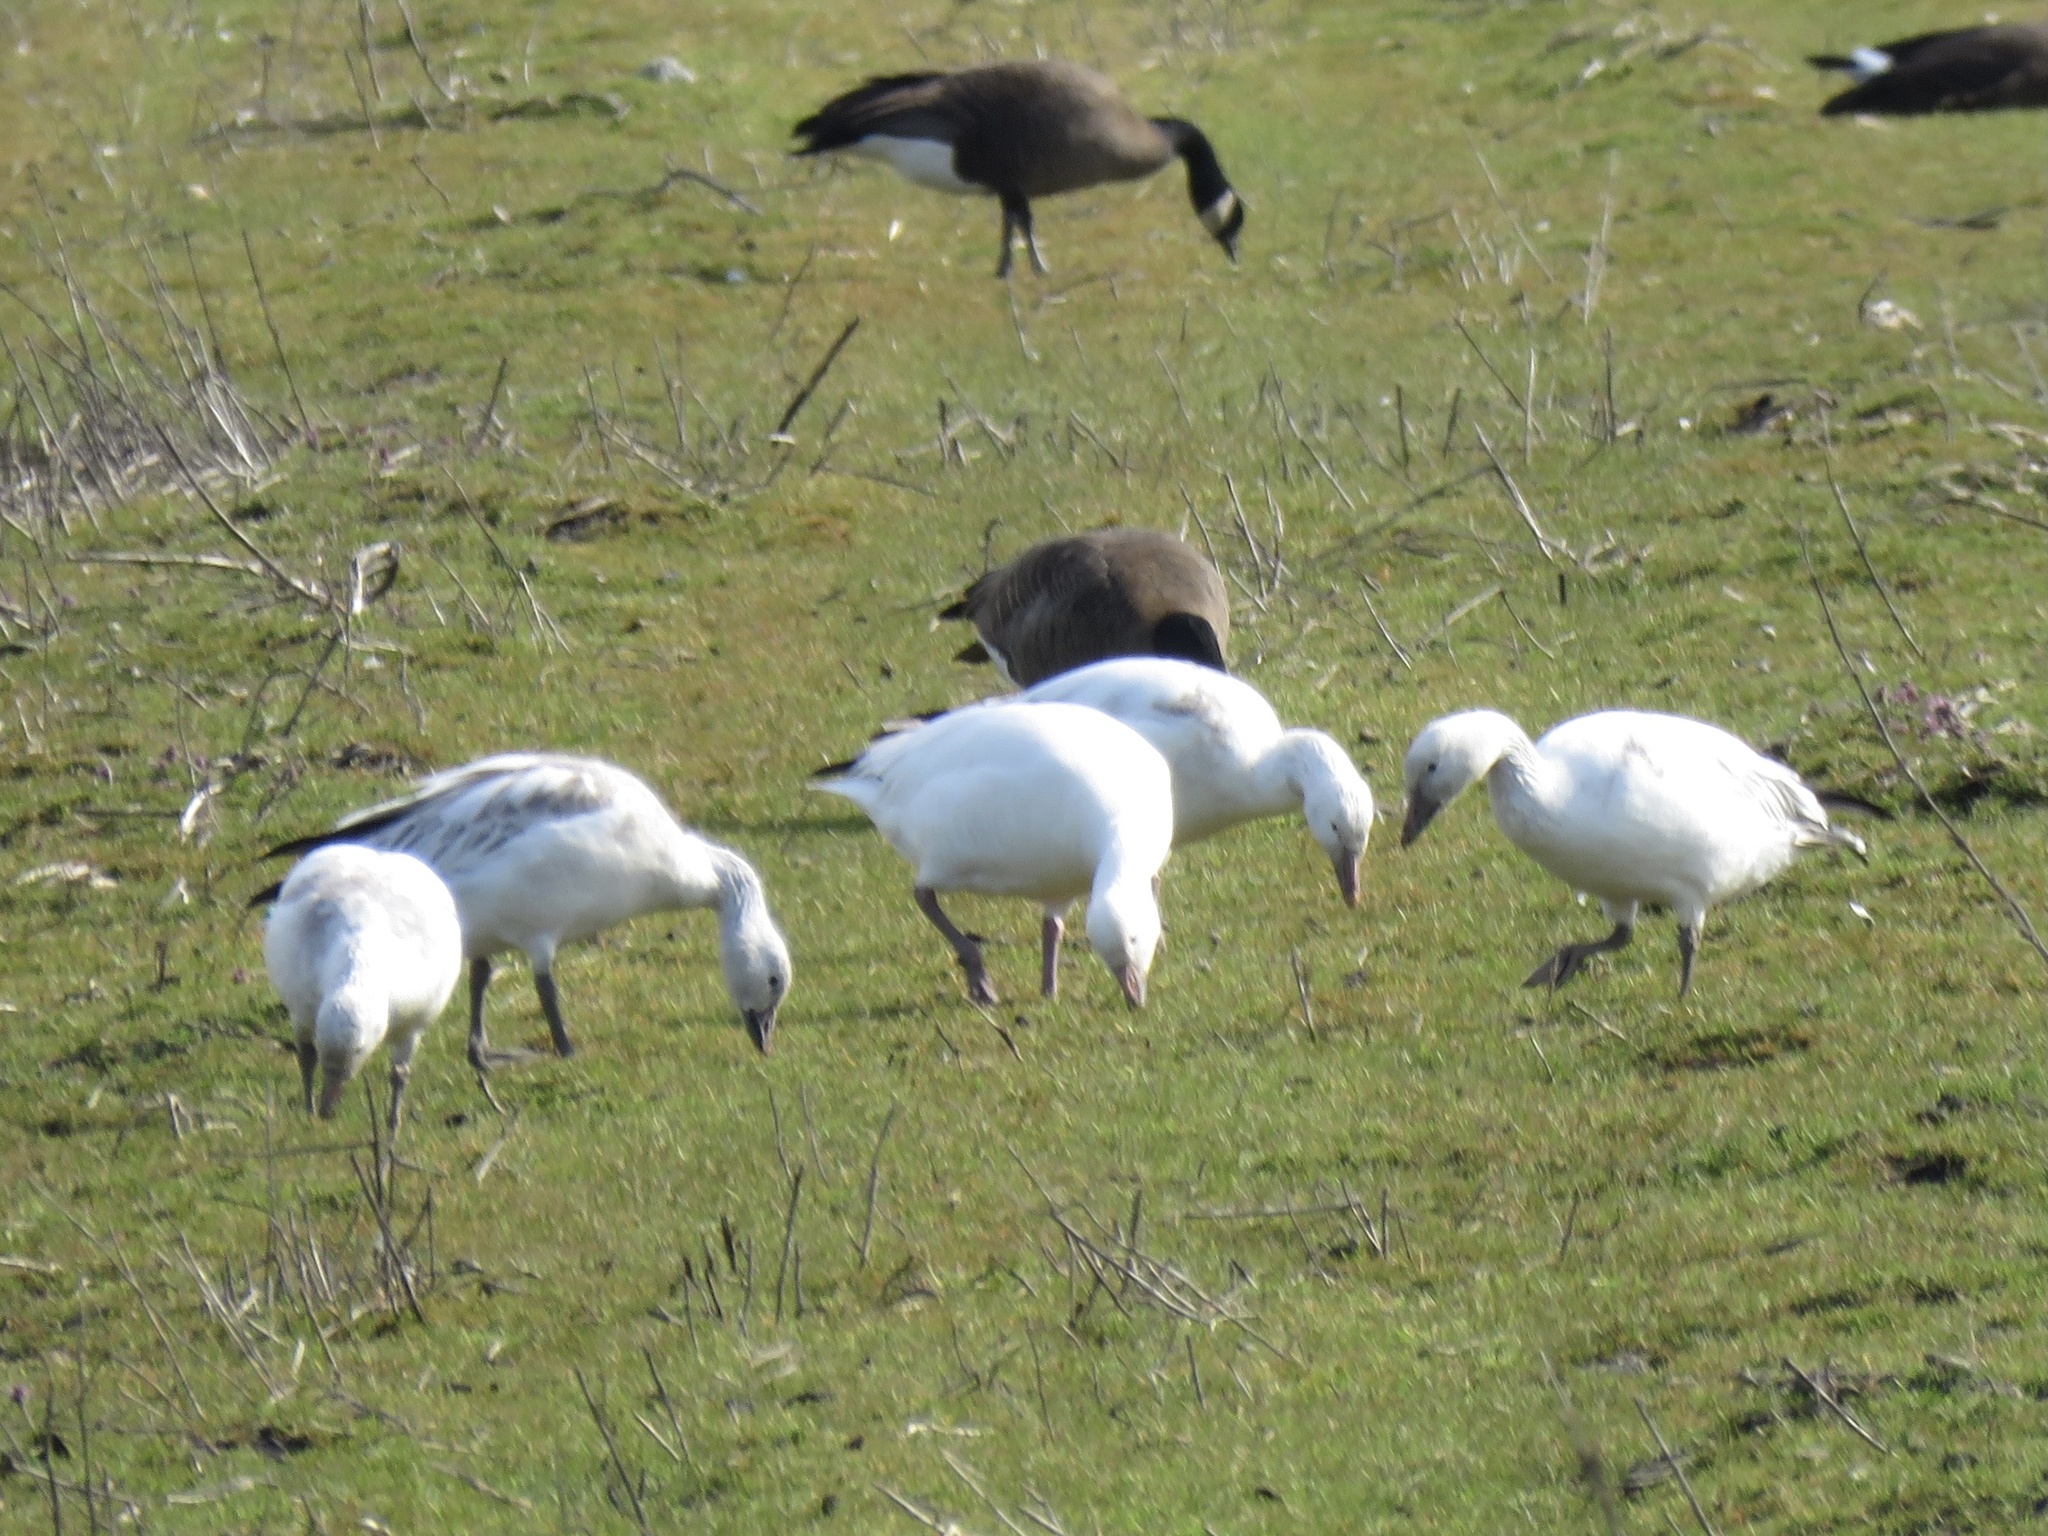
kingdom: Animalia
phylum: Chordata
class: Aves
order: Anseriformes
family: Anatidae
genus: Anser
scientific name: Anser caerulescens
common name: Snow goose
